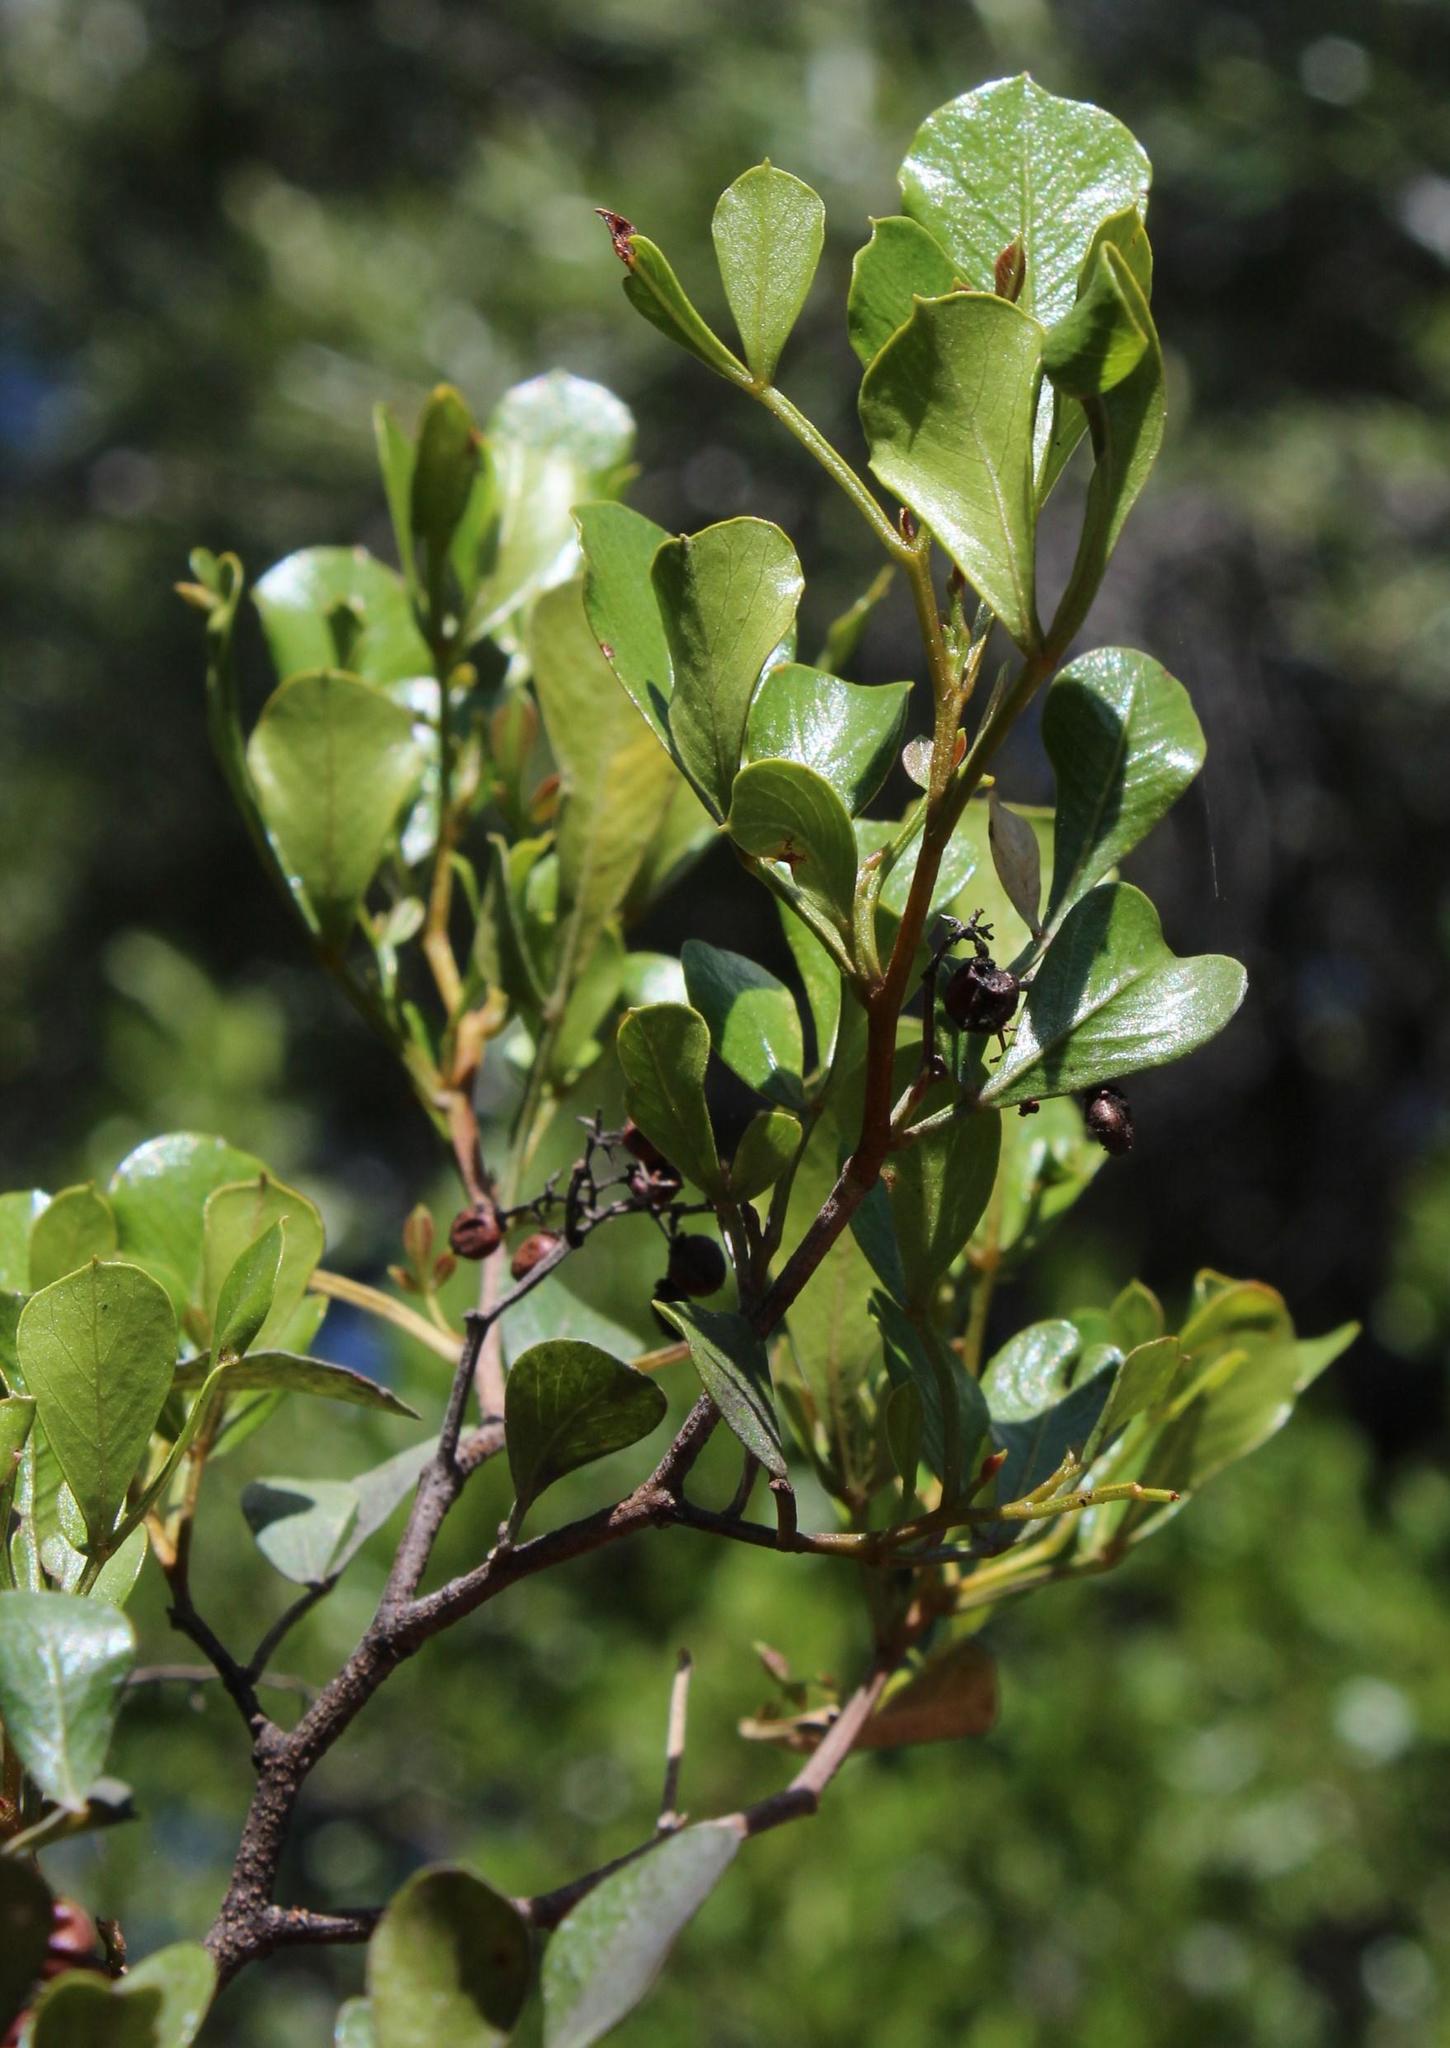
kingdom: Plantae
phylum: Tracheophyta
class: Magnoliopsida
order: Sapindales
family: Anacardiaceae
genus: Searsia
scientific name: Searsia pallens
